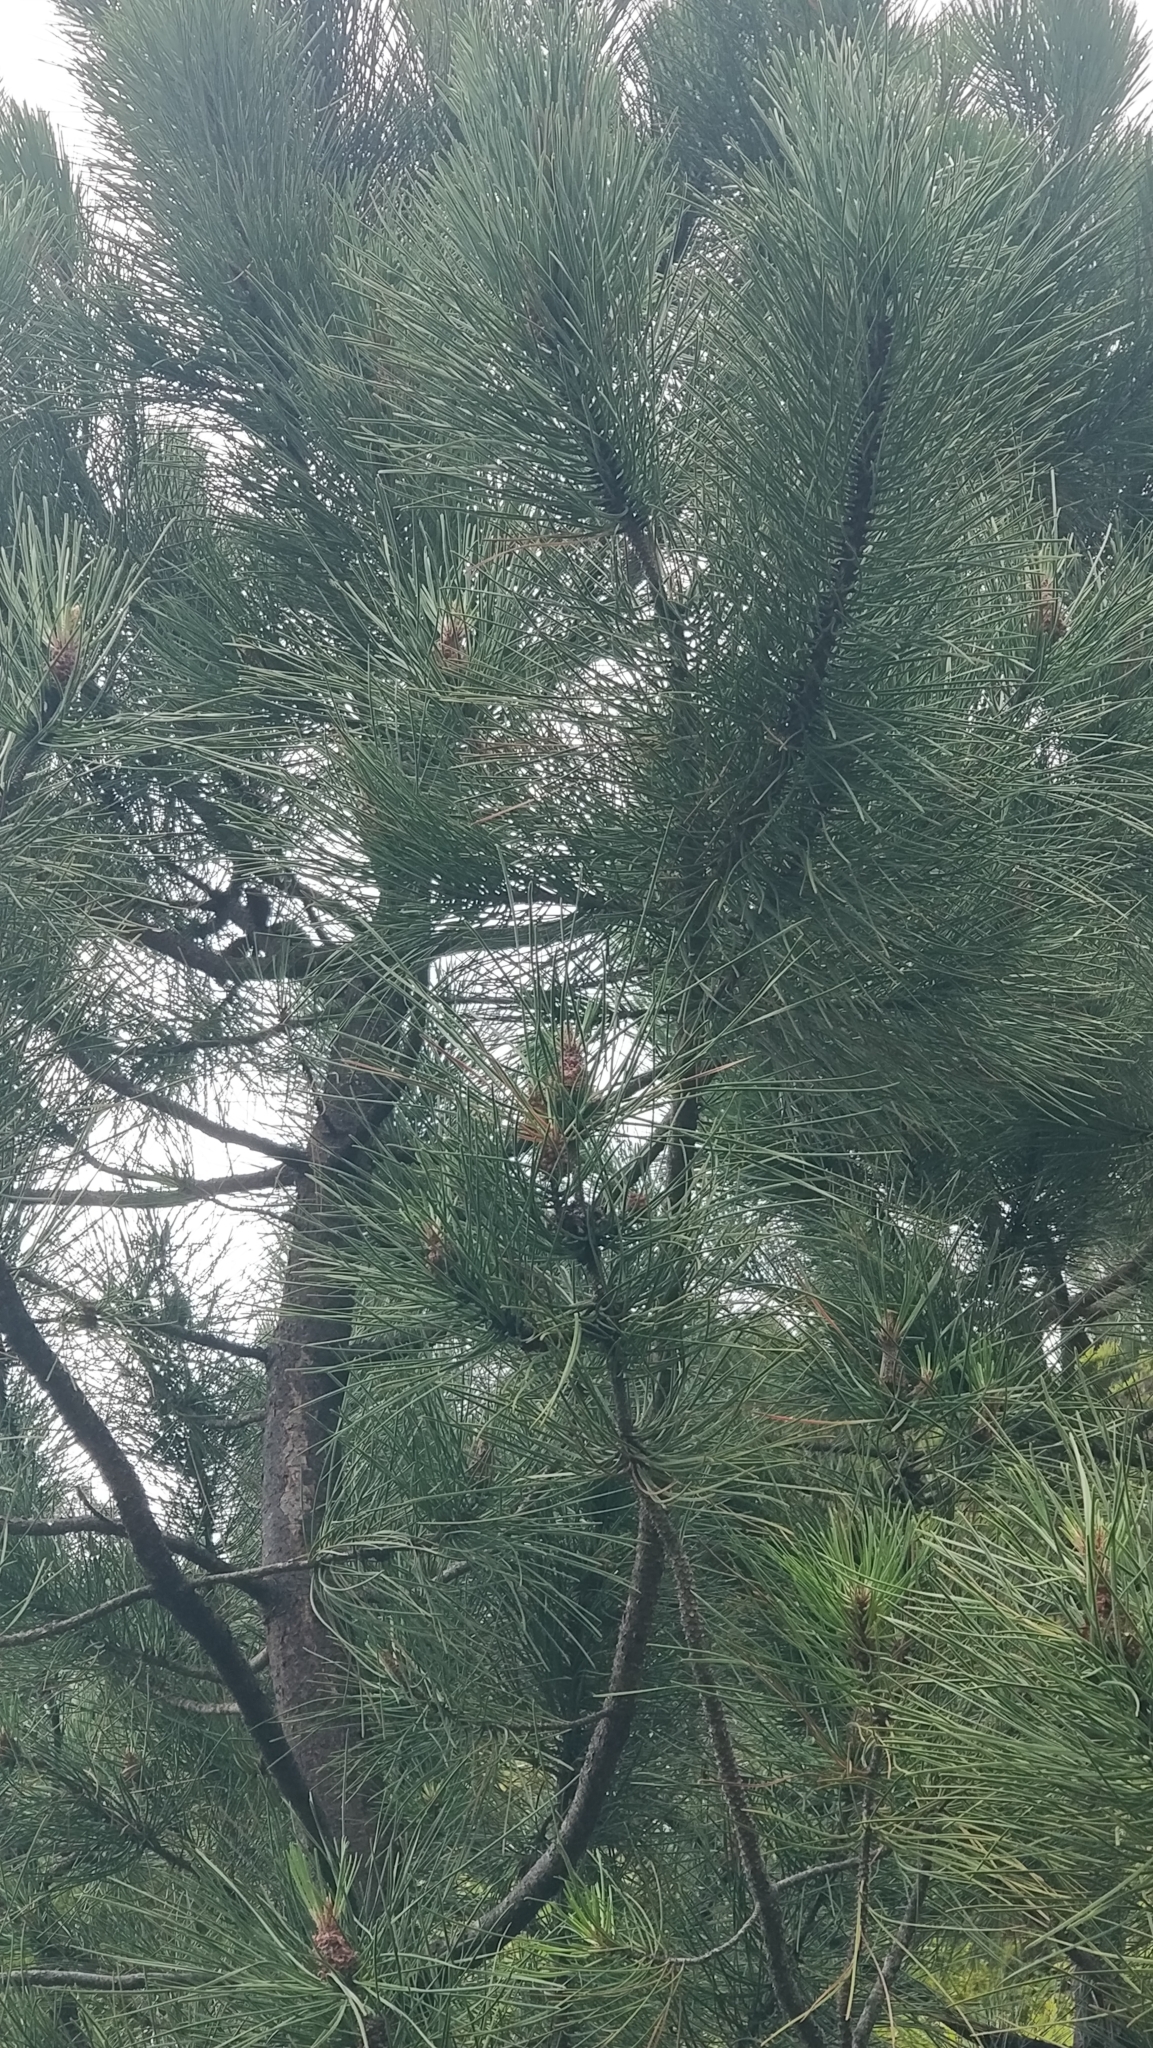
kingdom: Plantae
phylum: Tracheophyta
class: Pinopsida
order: Pinales
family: Pinaceae
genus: Pinus
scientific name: Pinus pinaster
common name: Maritime pine
